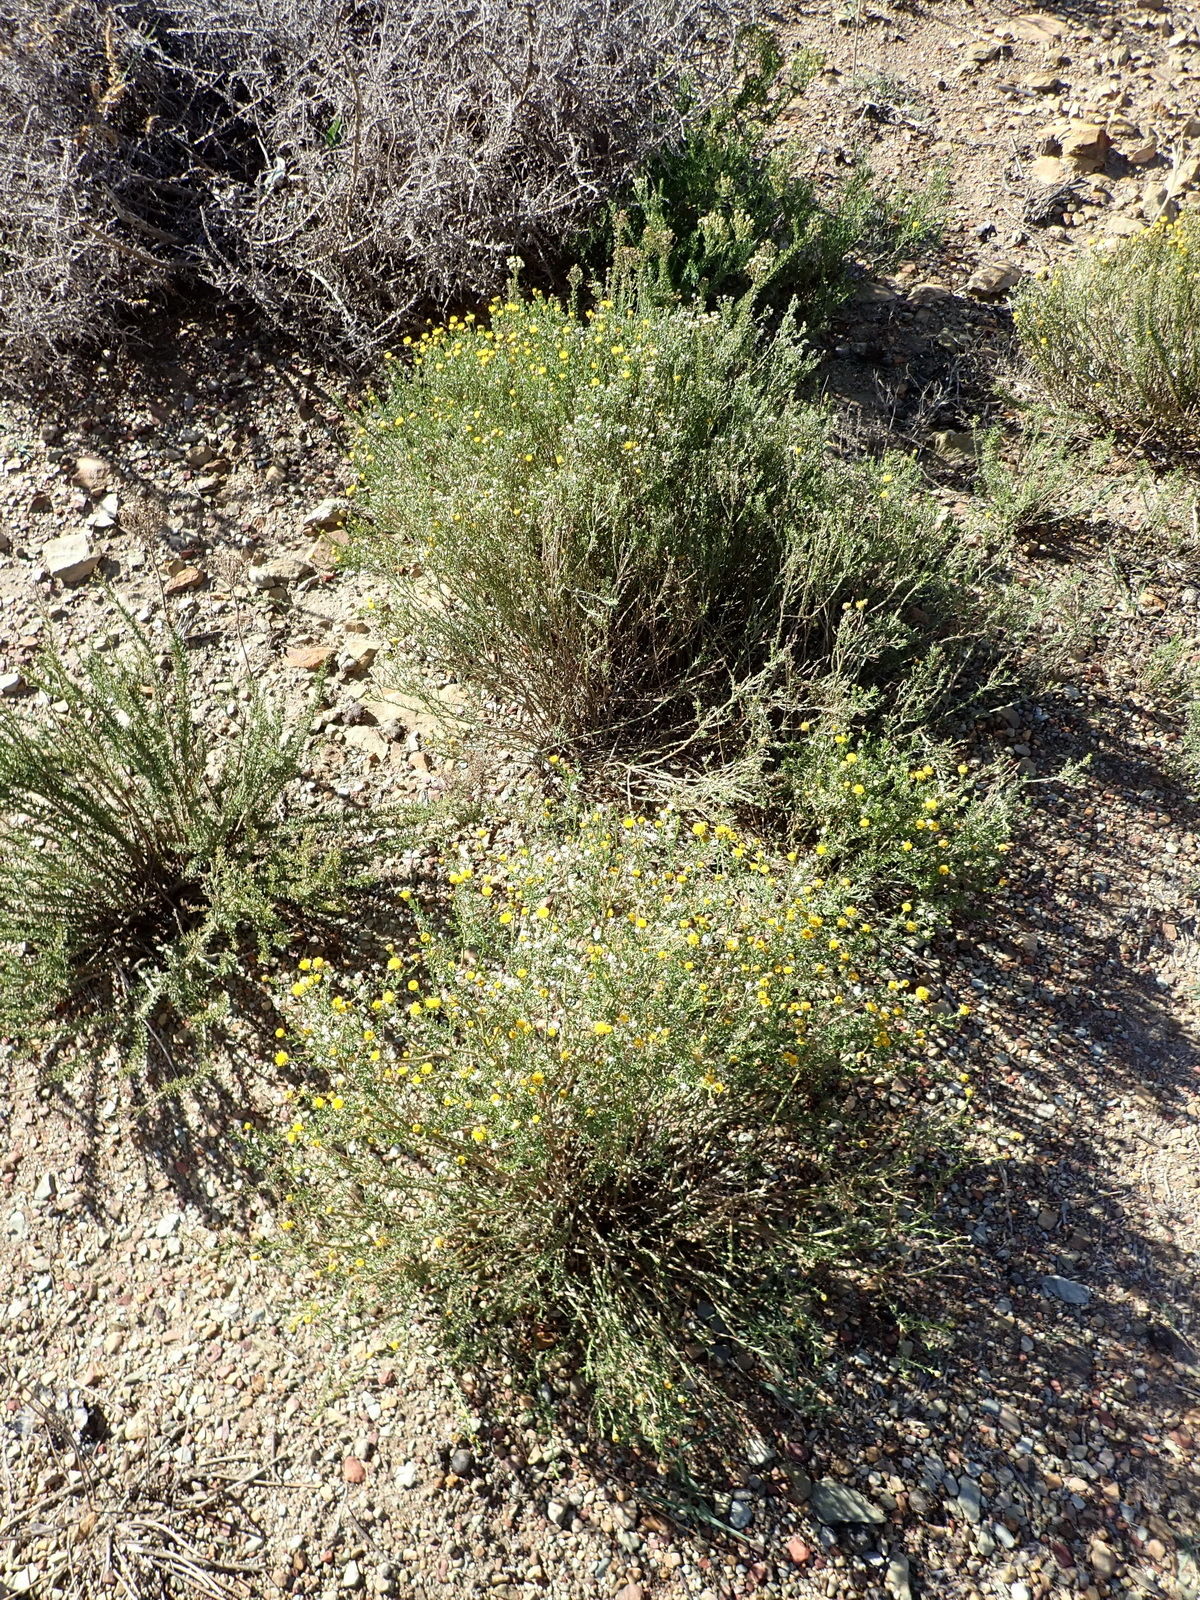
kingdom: Plantae
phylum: Tracheophyta
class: Magnoliopsida
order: Asterales
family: Asteraceae
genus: Chrysocoma
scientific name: Chrysocoma ciliata
